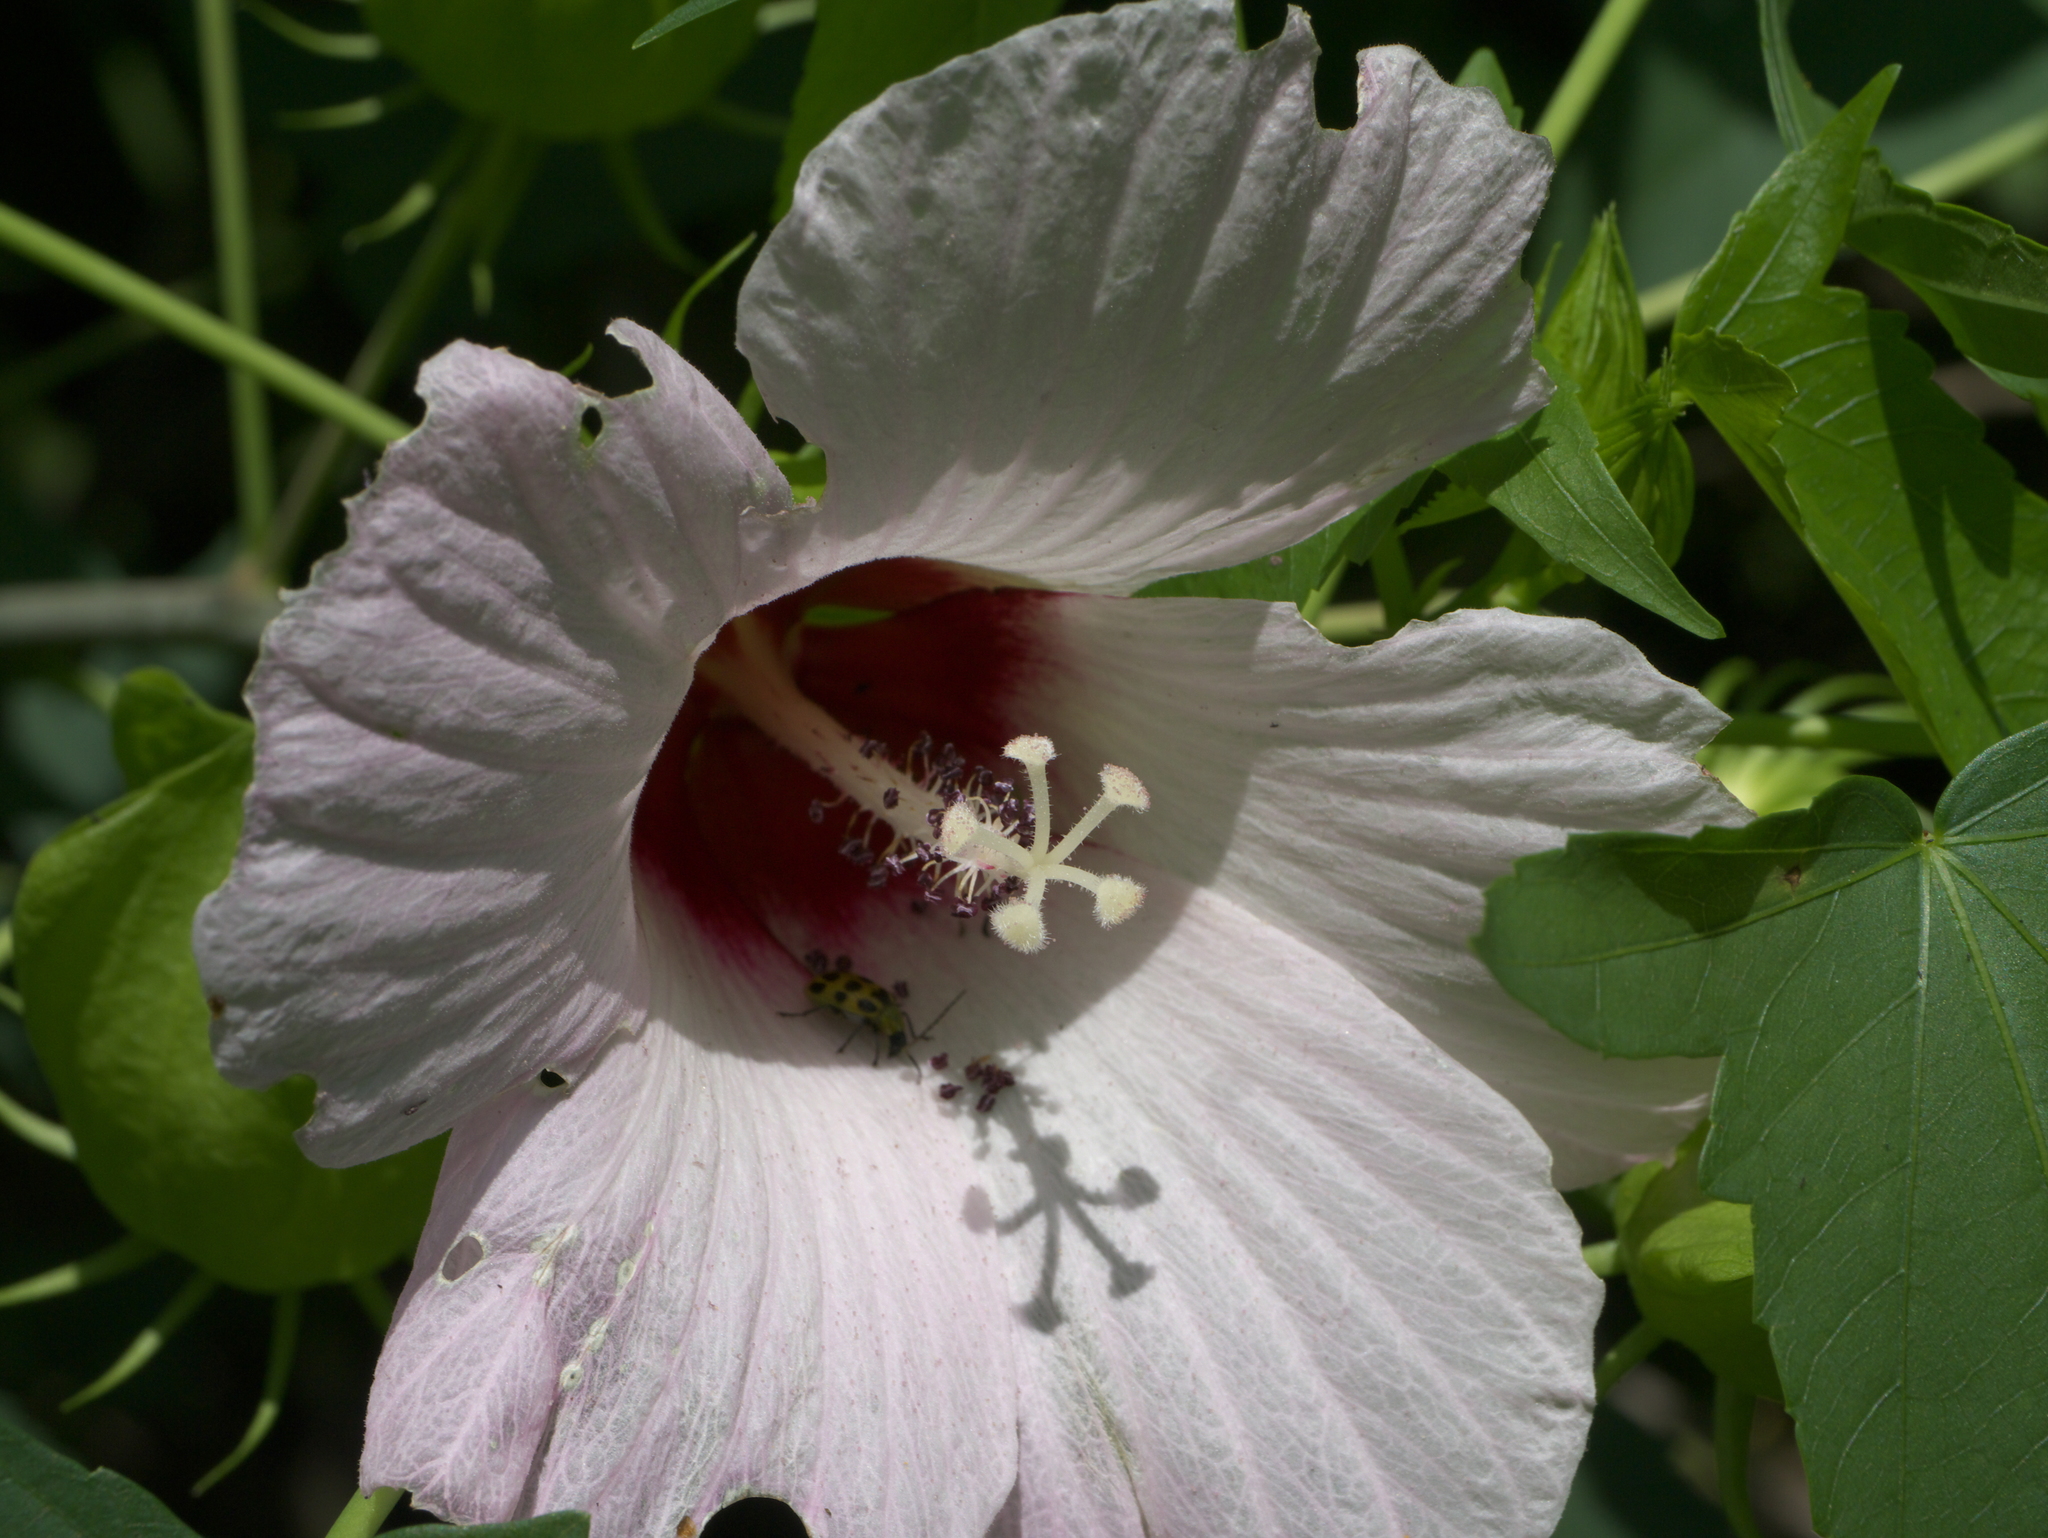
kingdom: Plantae
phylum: Tracheophyta
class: Magnoliopsida
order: Malvales
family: Malvaceae
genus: Hibiscus
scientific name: Hibiscus laevis
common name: Scarlet rose-mallow
